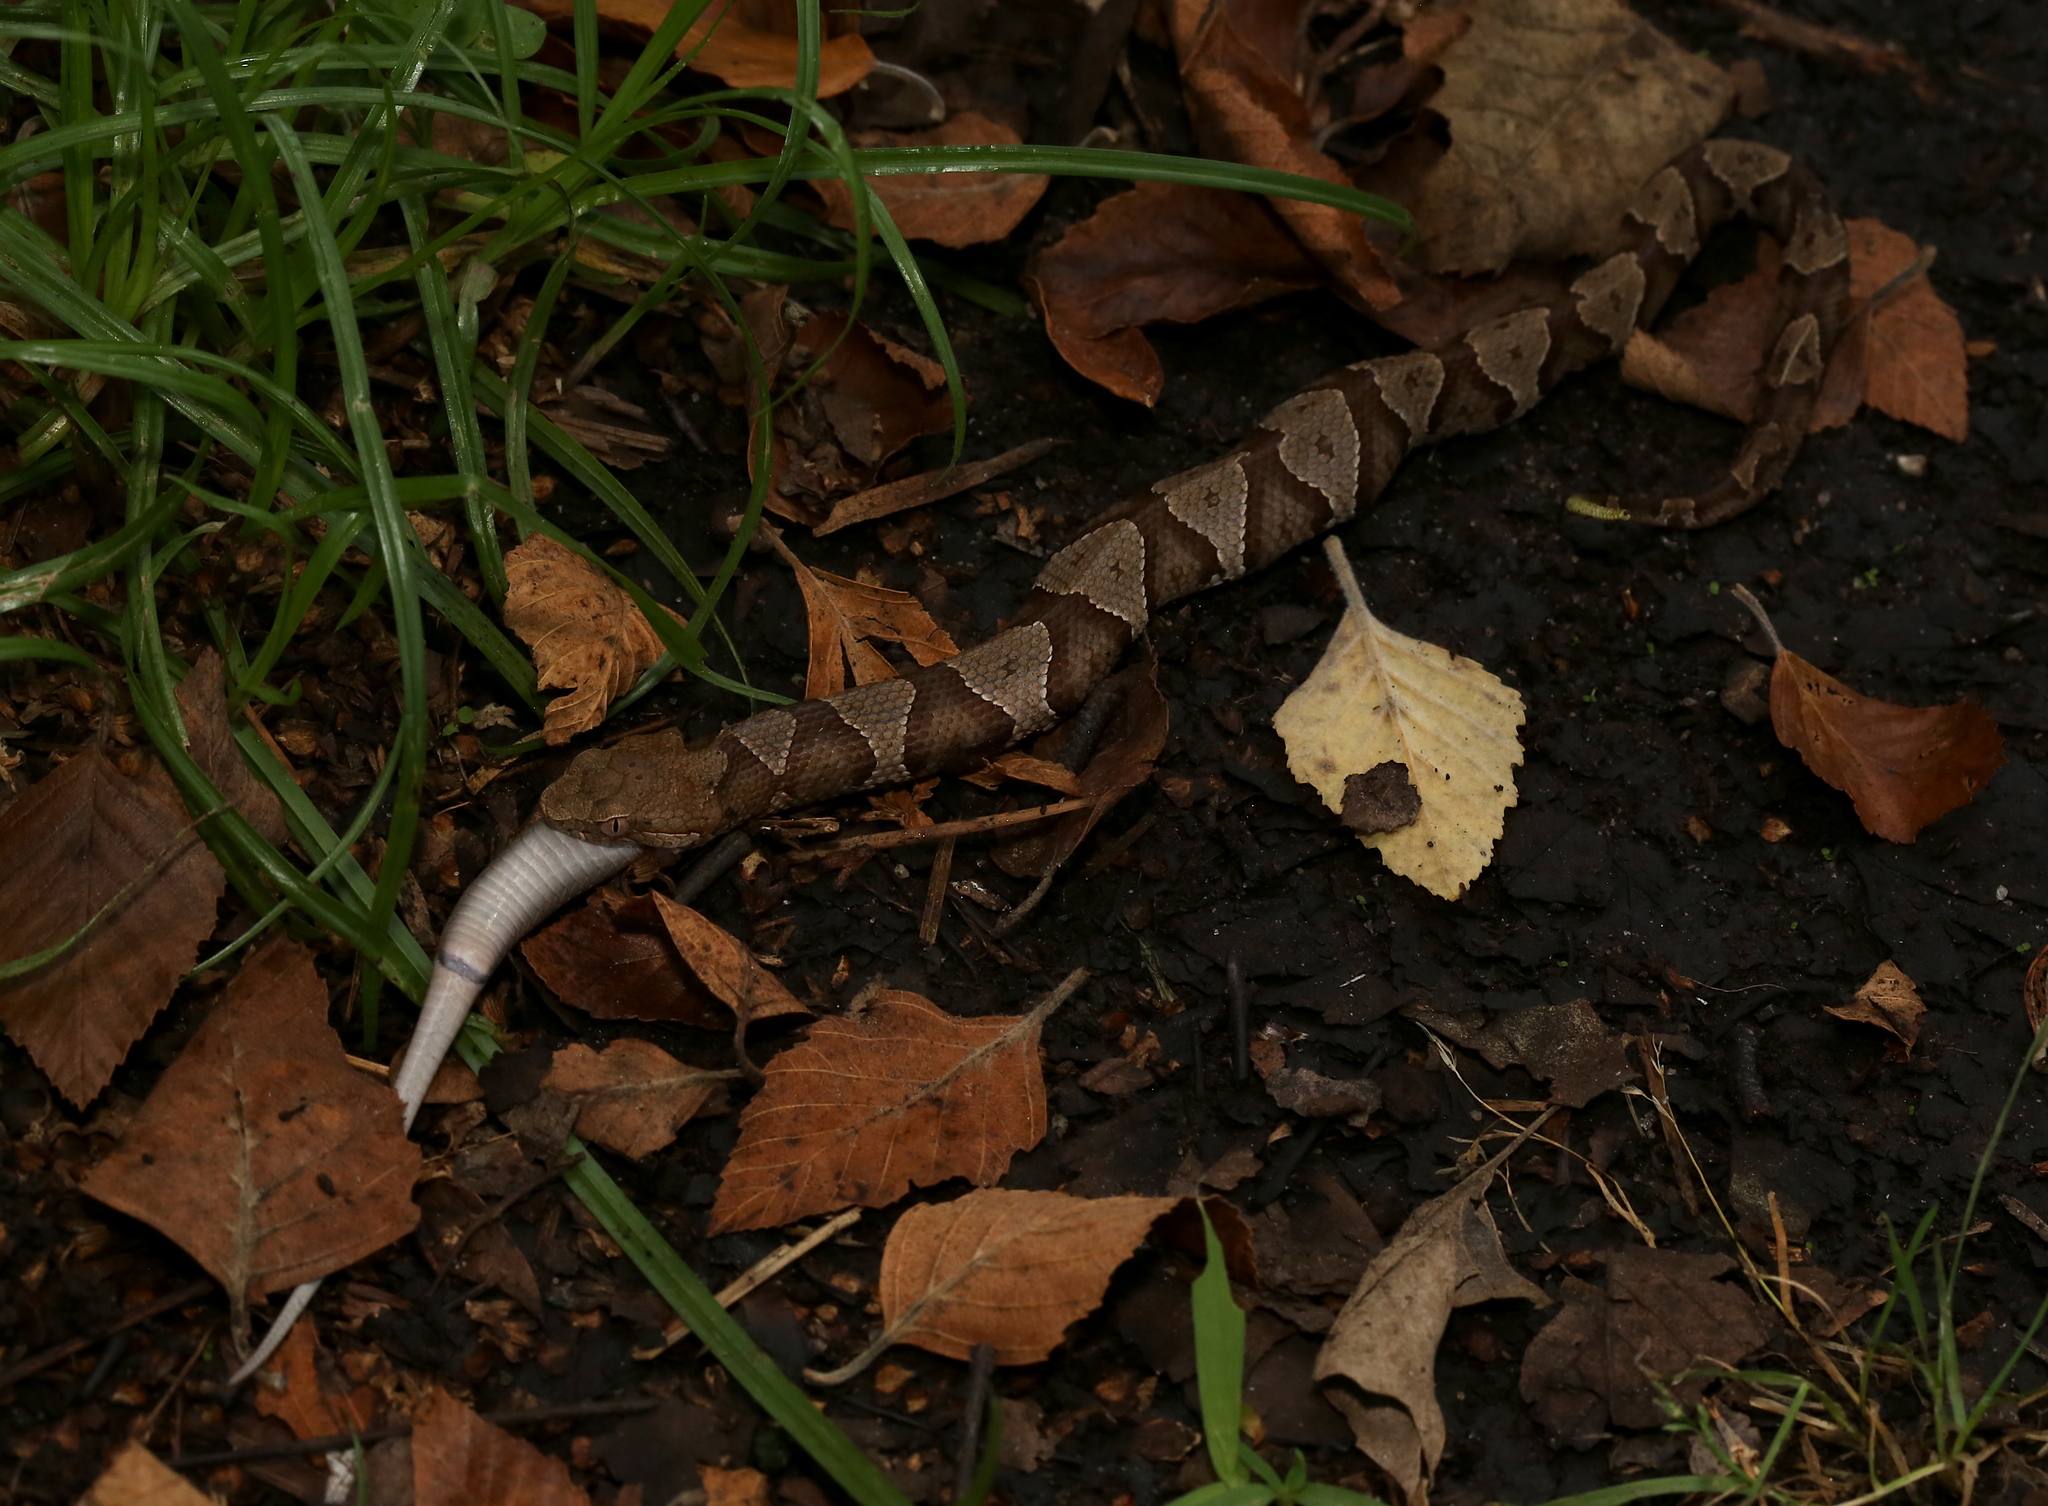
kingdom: Animalia
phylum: Chordata
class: Squamata
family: Colubridae
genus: Storeria
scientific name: Storeria dekayi
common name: (dekay’s) brown snake
